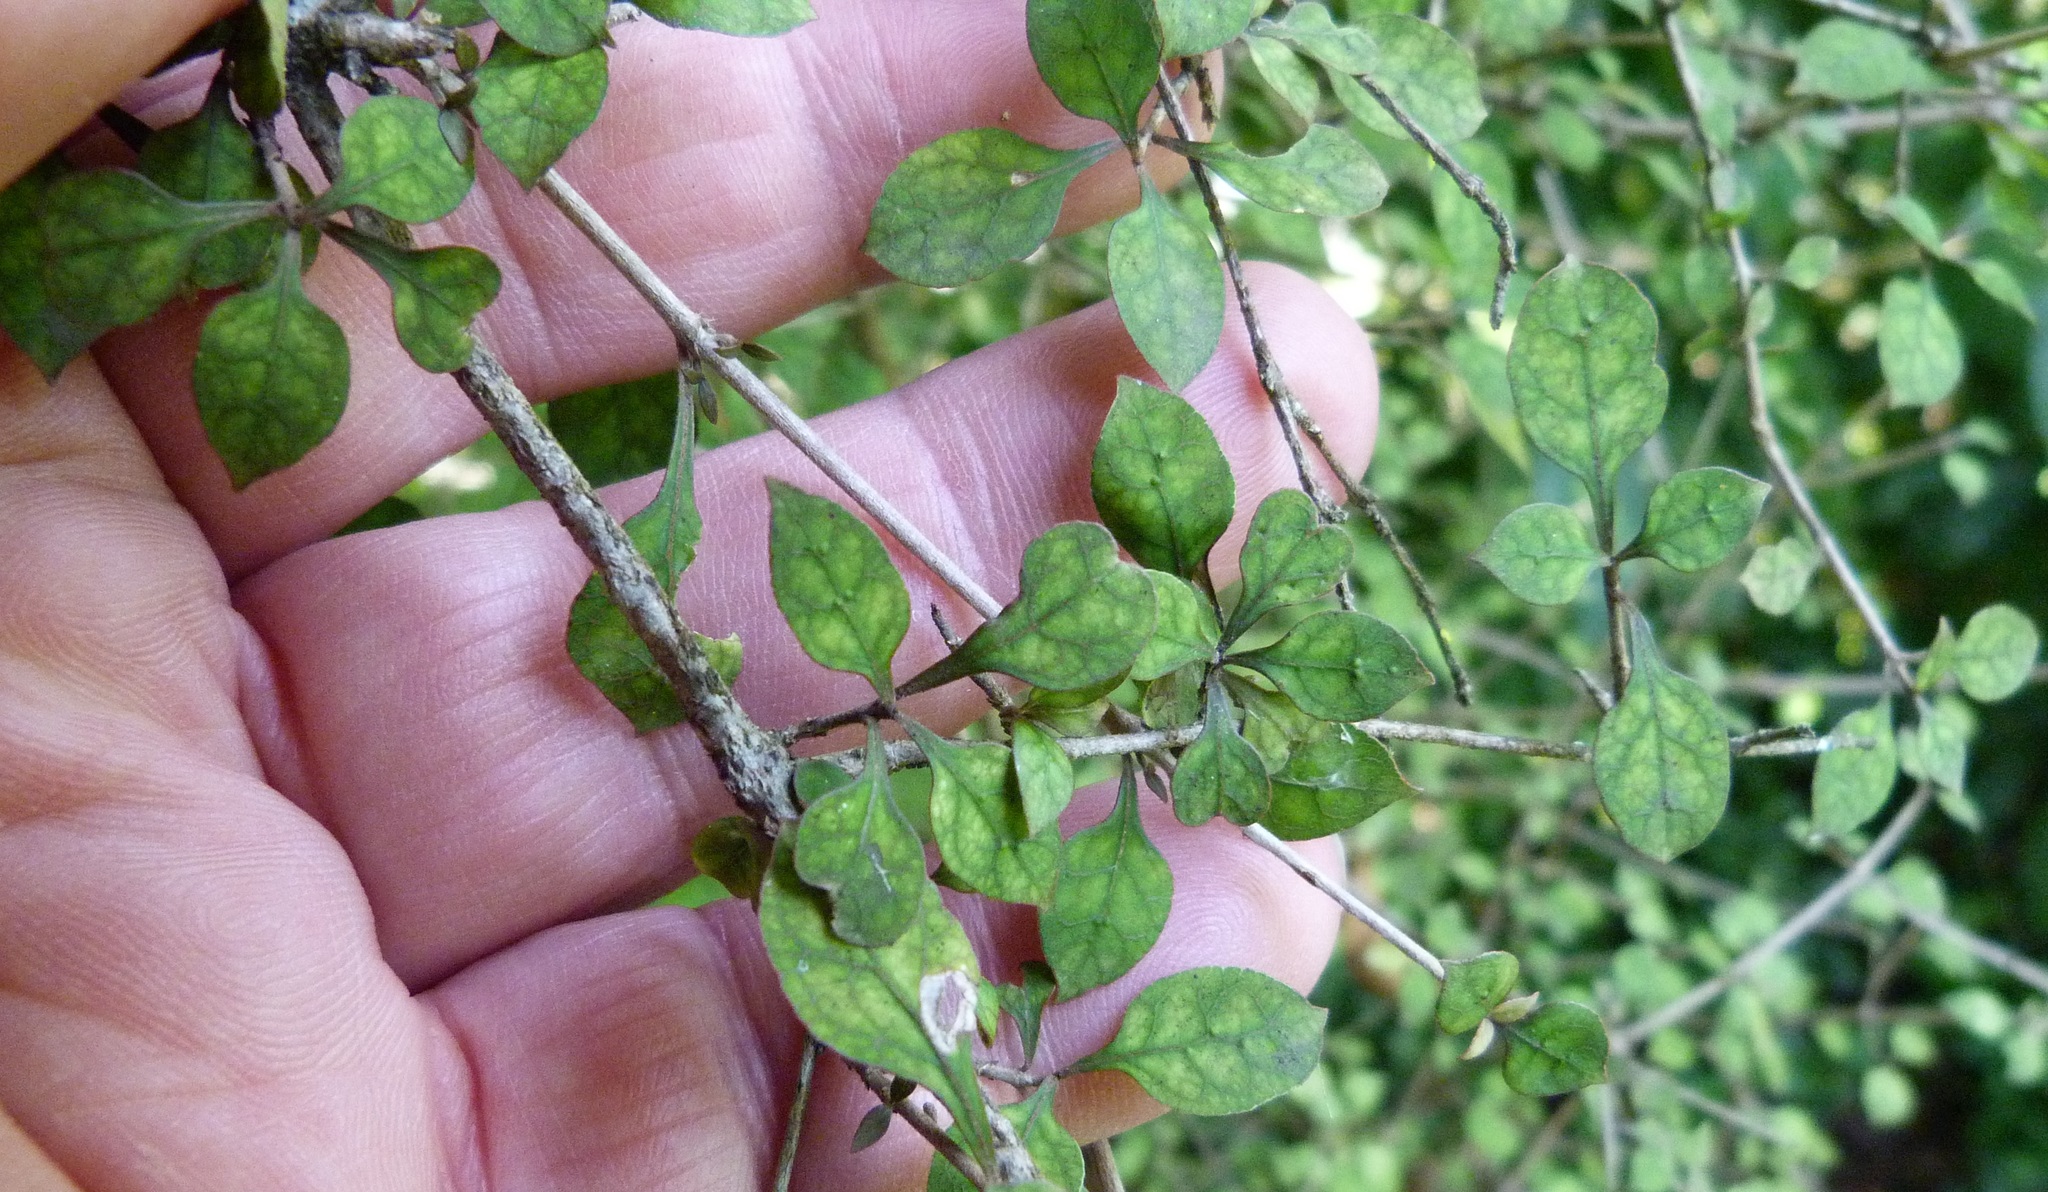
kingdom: Plantae
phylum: Tracheophyta
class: Magnoliopsida
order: Gentianales
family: Rubiaceae
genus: Coprosma
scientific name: Coprosma areolata
